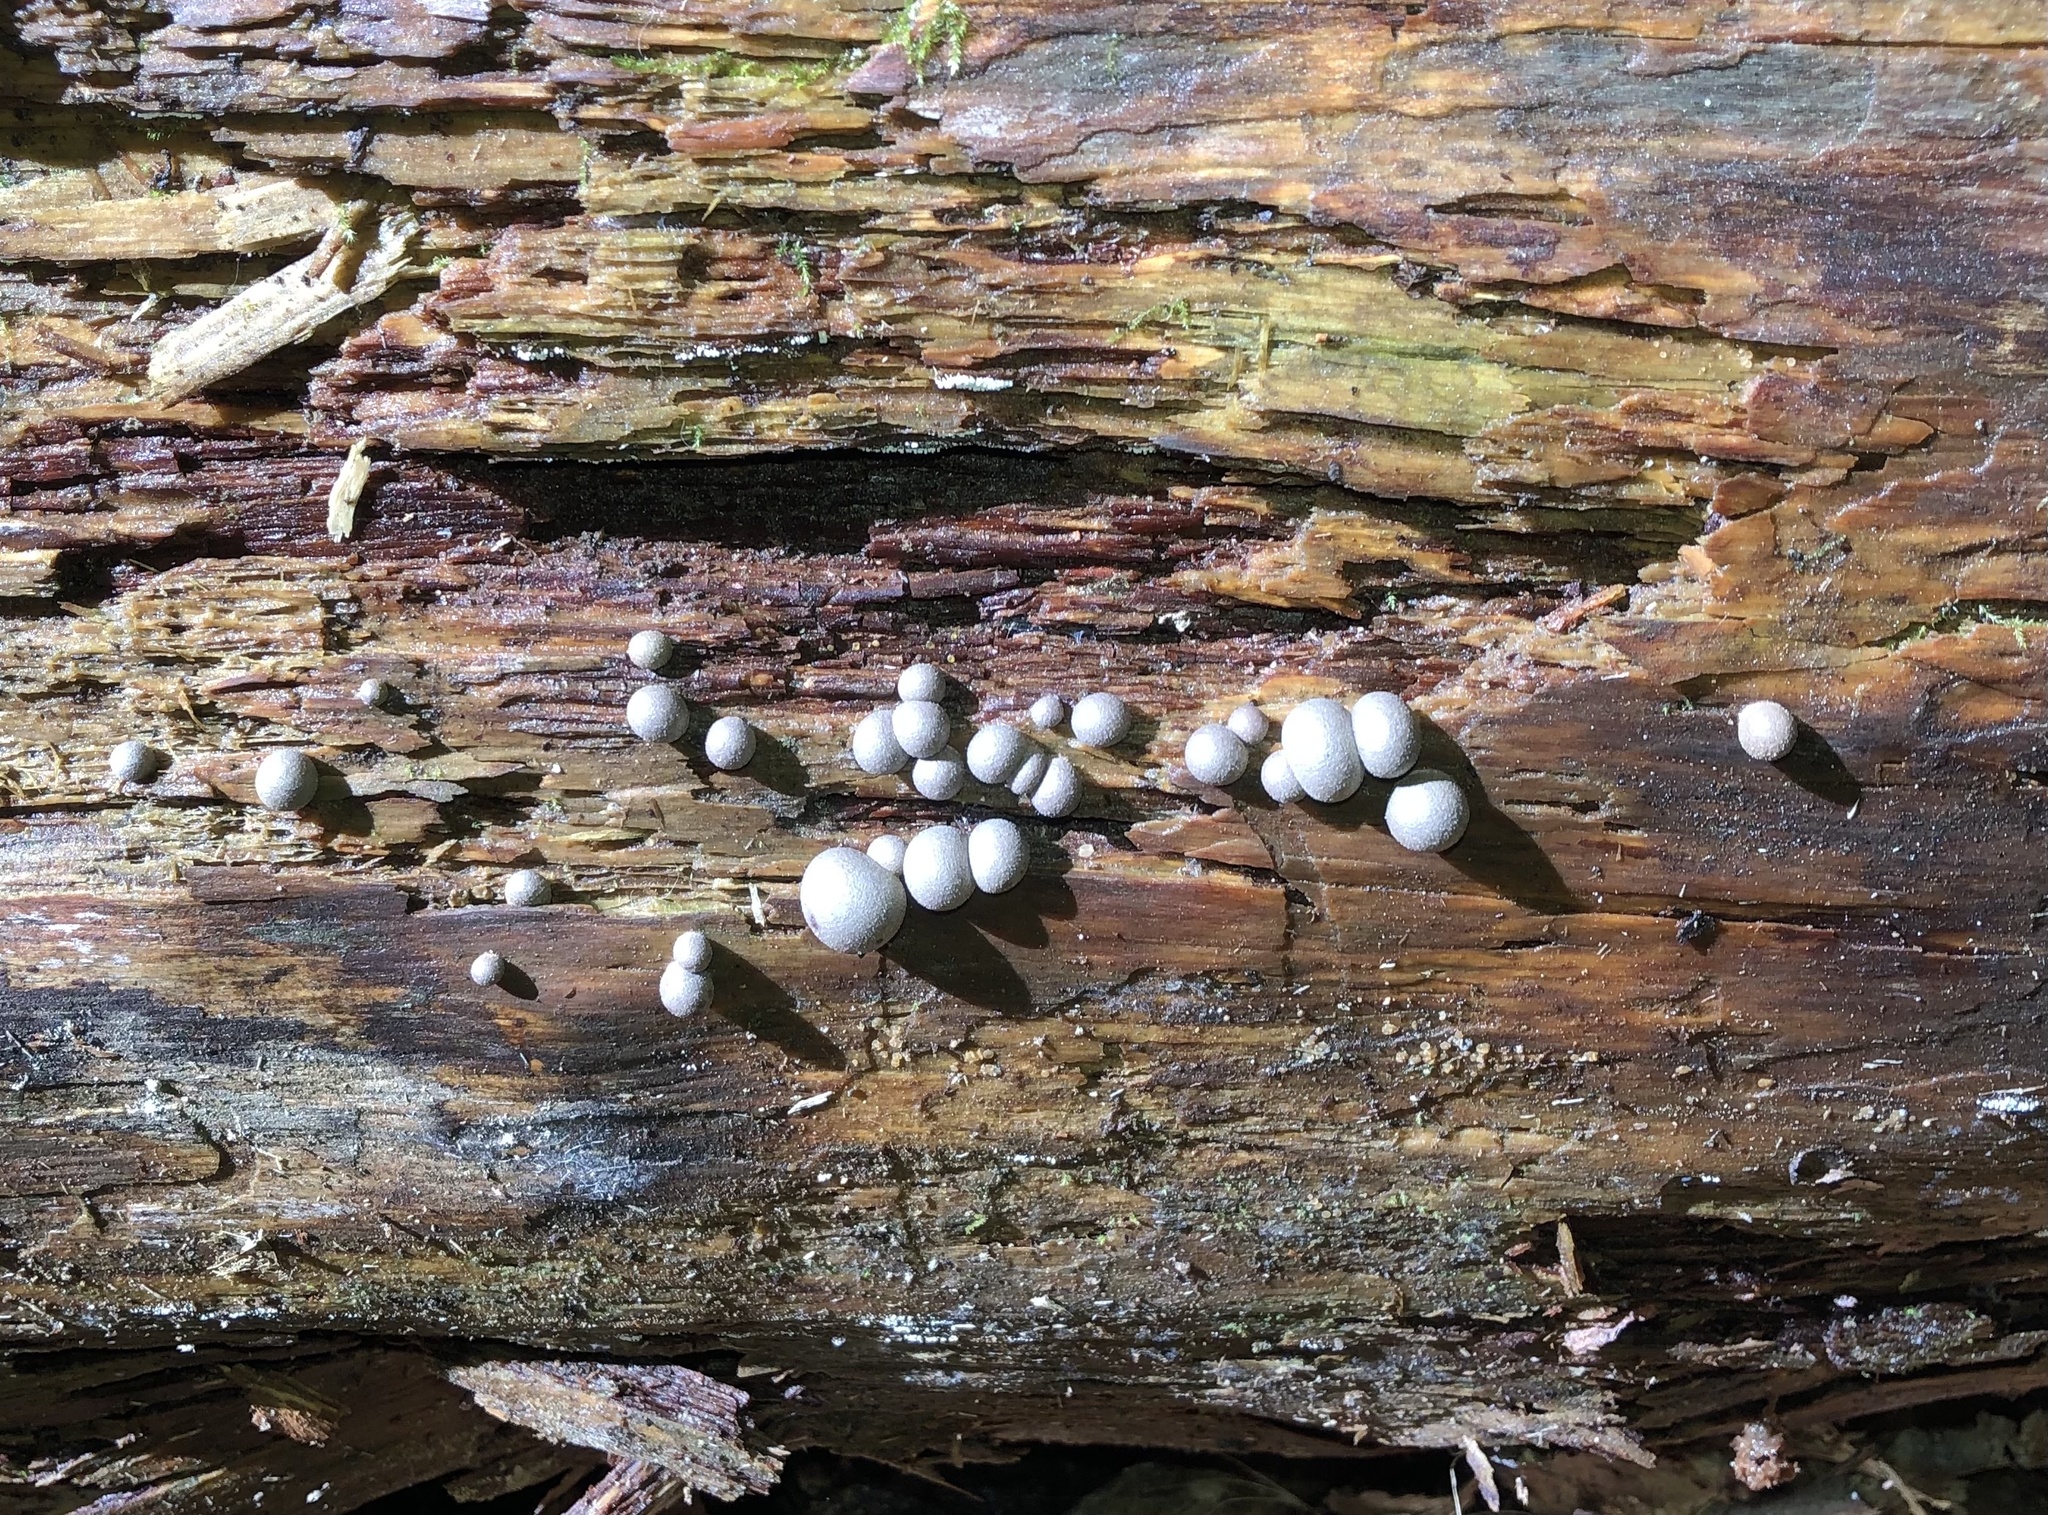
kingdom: Protozoa
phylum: Mycetozoa
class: Myxomycetes
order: Cribrariales
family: Tubiferaceae
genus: Lycogala
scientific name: Lycogala epidendrum
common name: Wolf's milk
